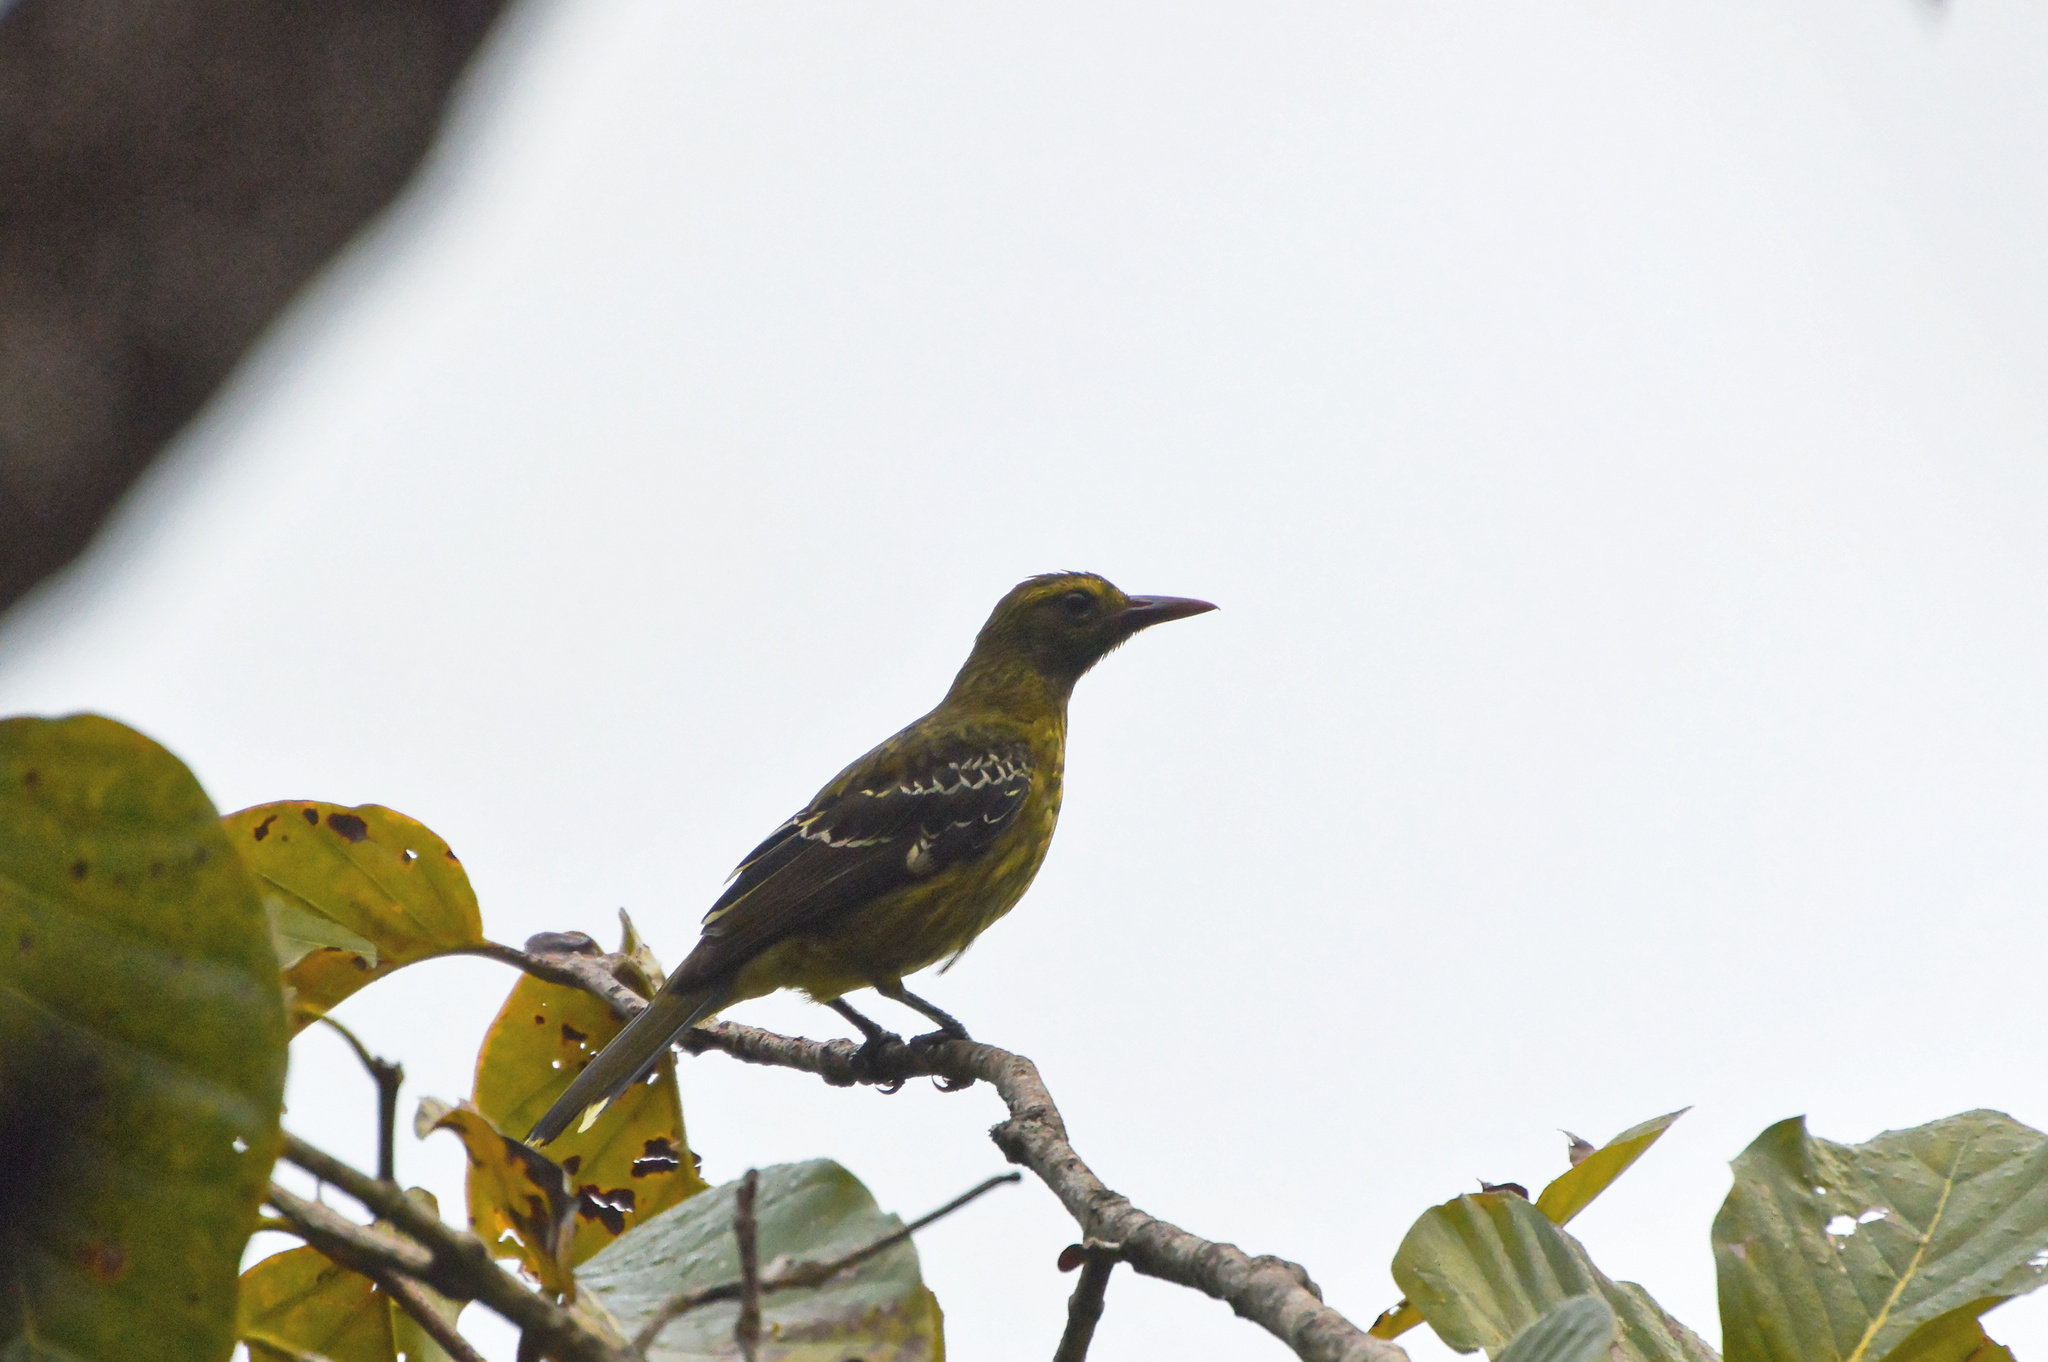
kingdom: Animalia
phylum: Chordata
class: Aves
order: Passeriformes
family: Oriolidae
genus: Oriolus
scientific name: Oriolus flavocinctus
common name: Green oriole
